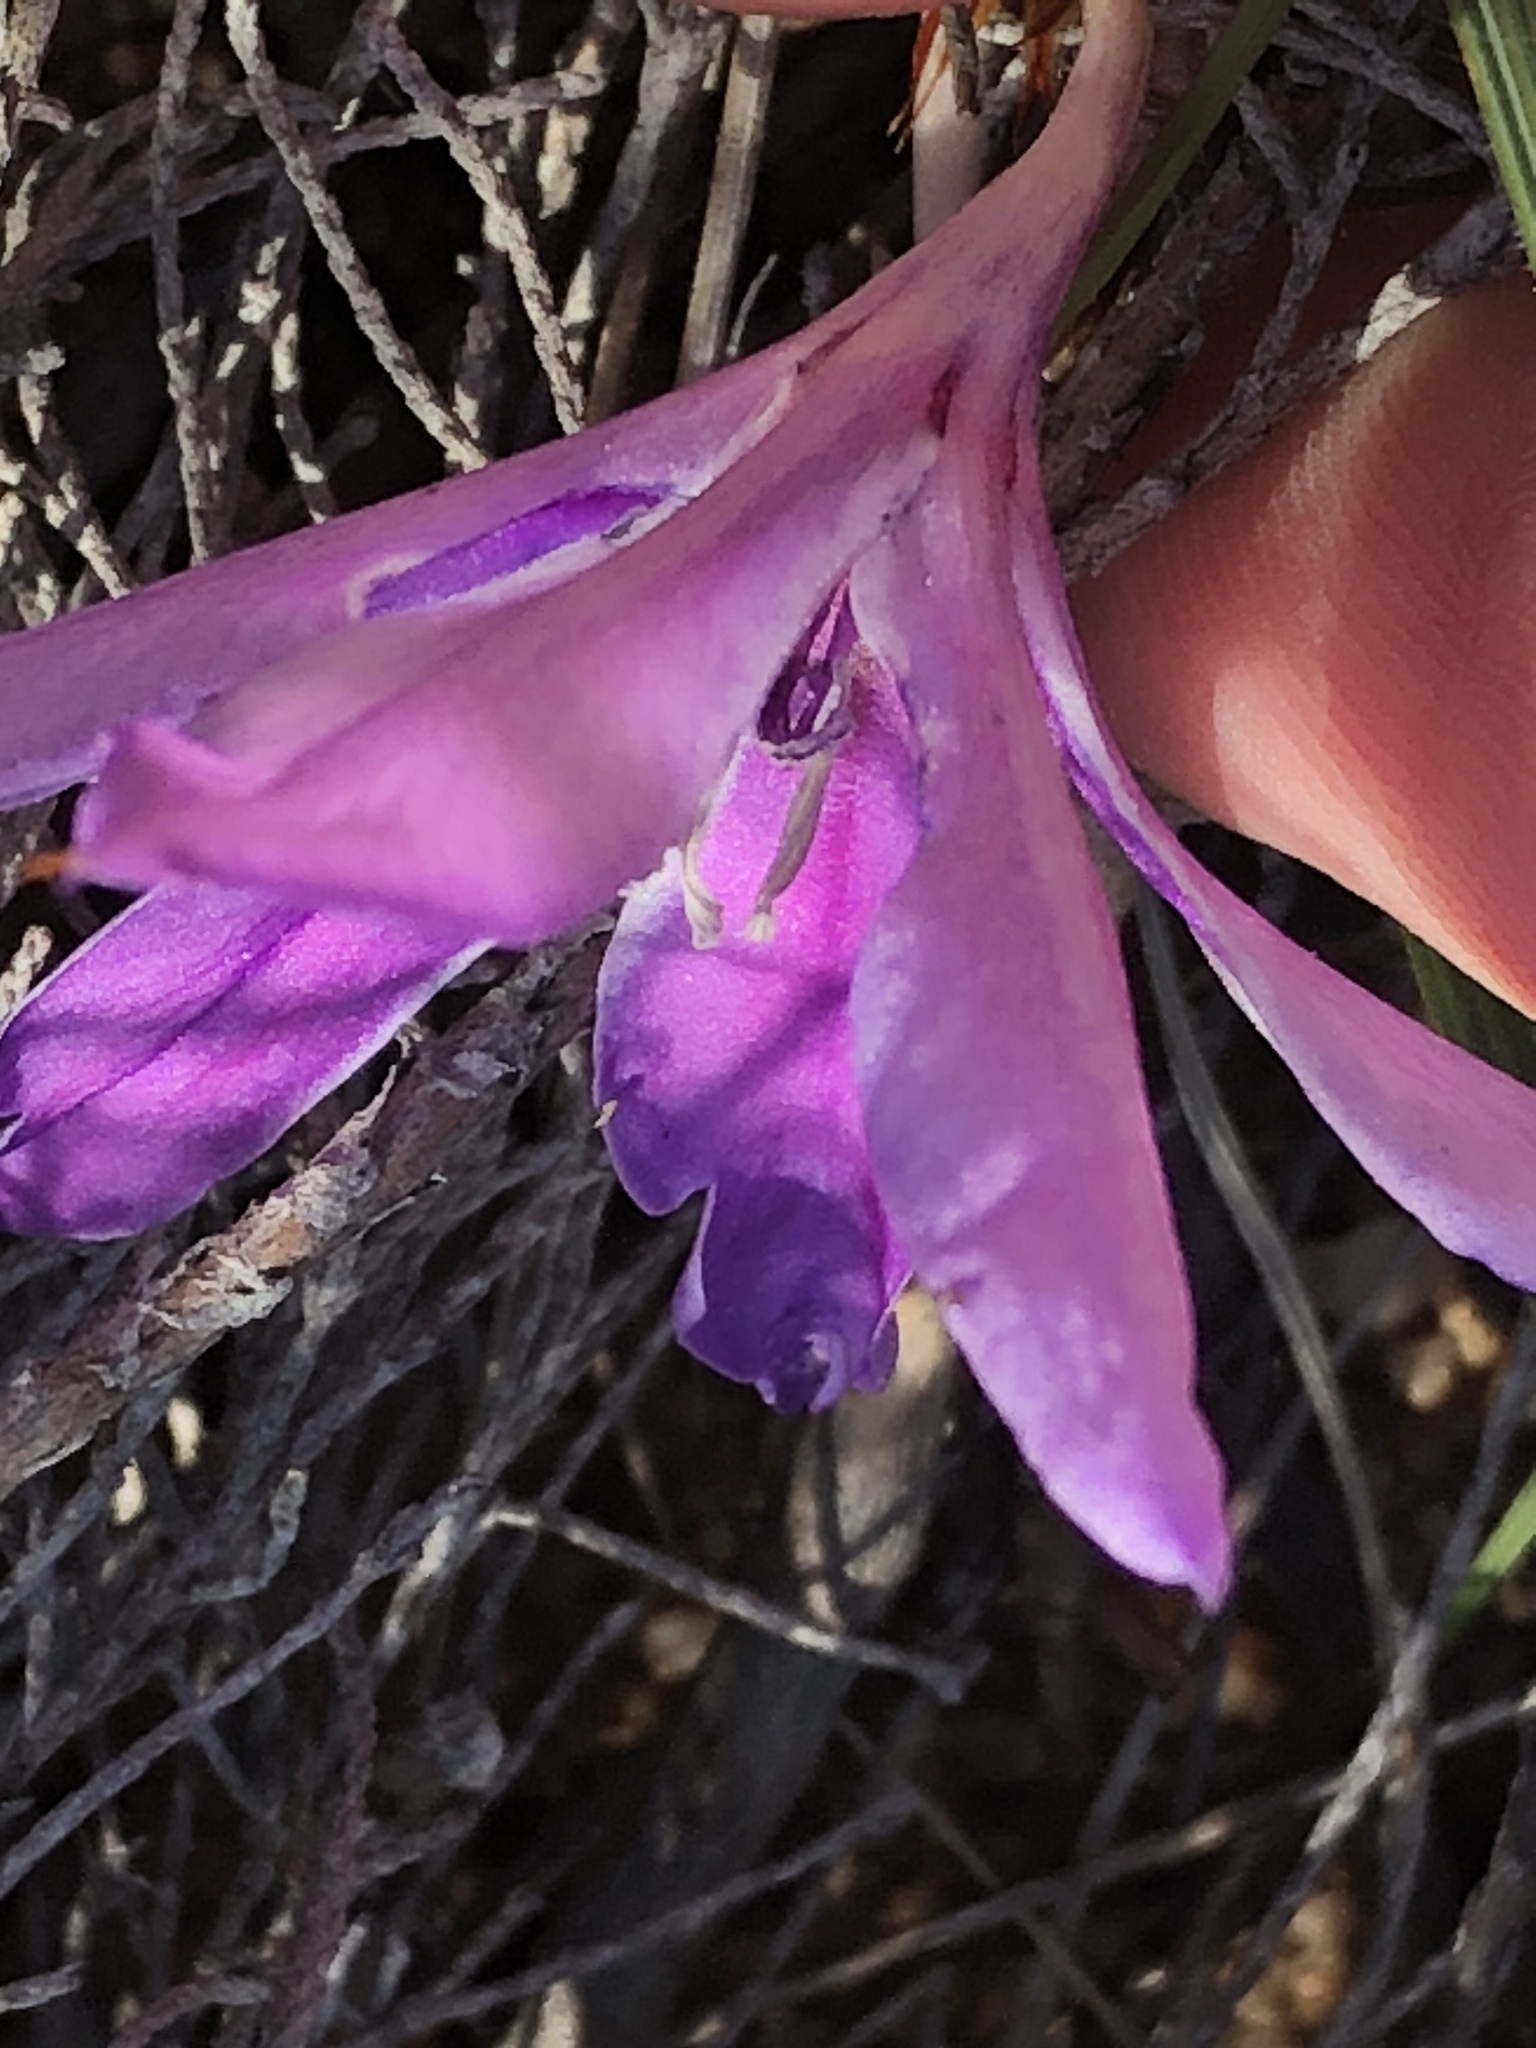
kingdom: Plantae
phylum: Tracheophyta
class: Liliopsida
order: Asparagales
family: Iridaceae
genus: Babiana
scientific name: Babiana radiata
